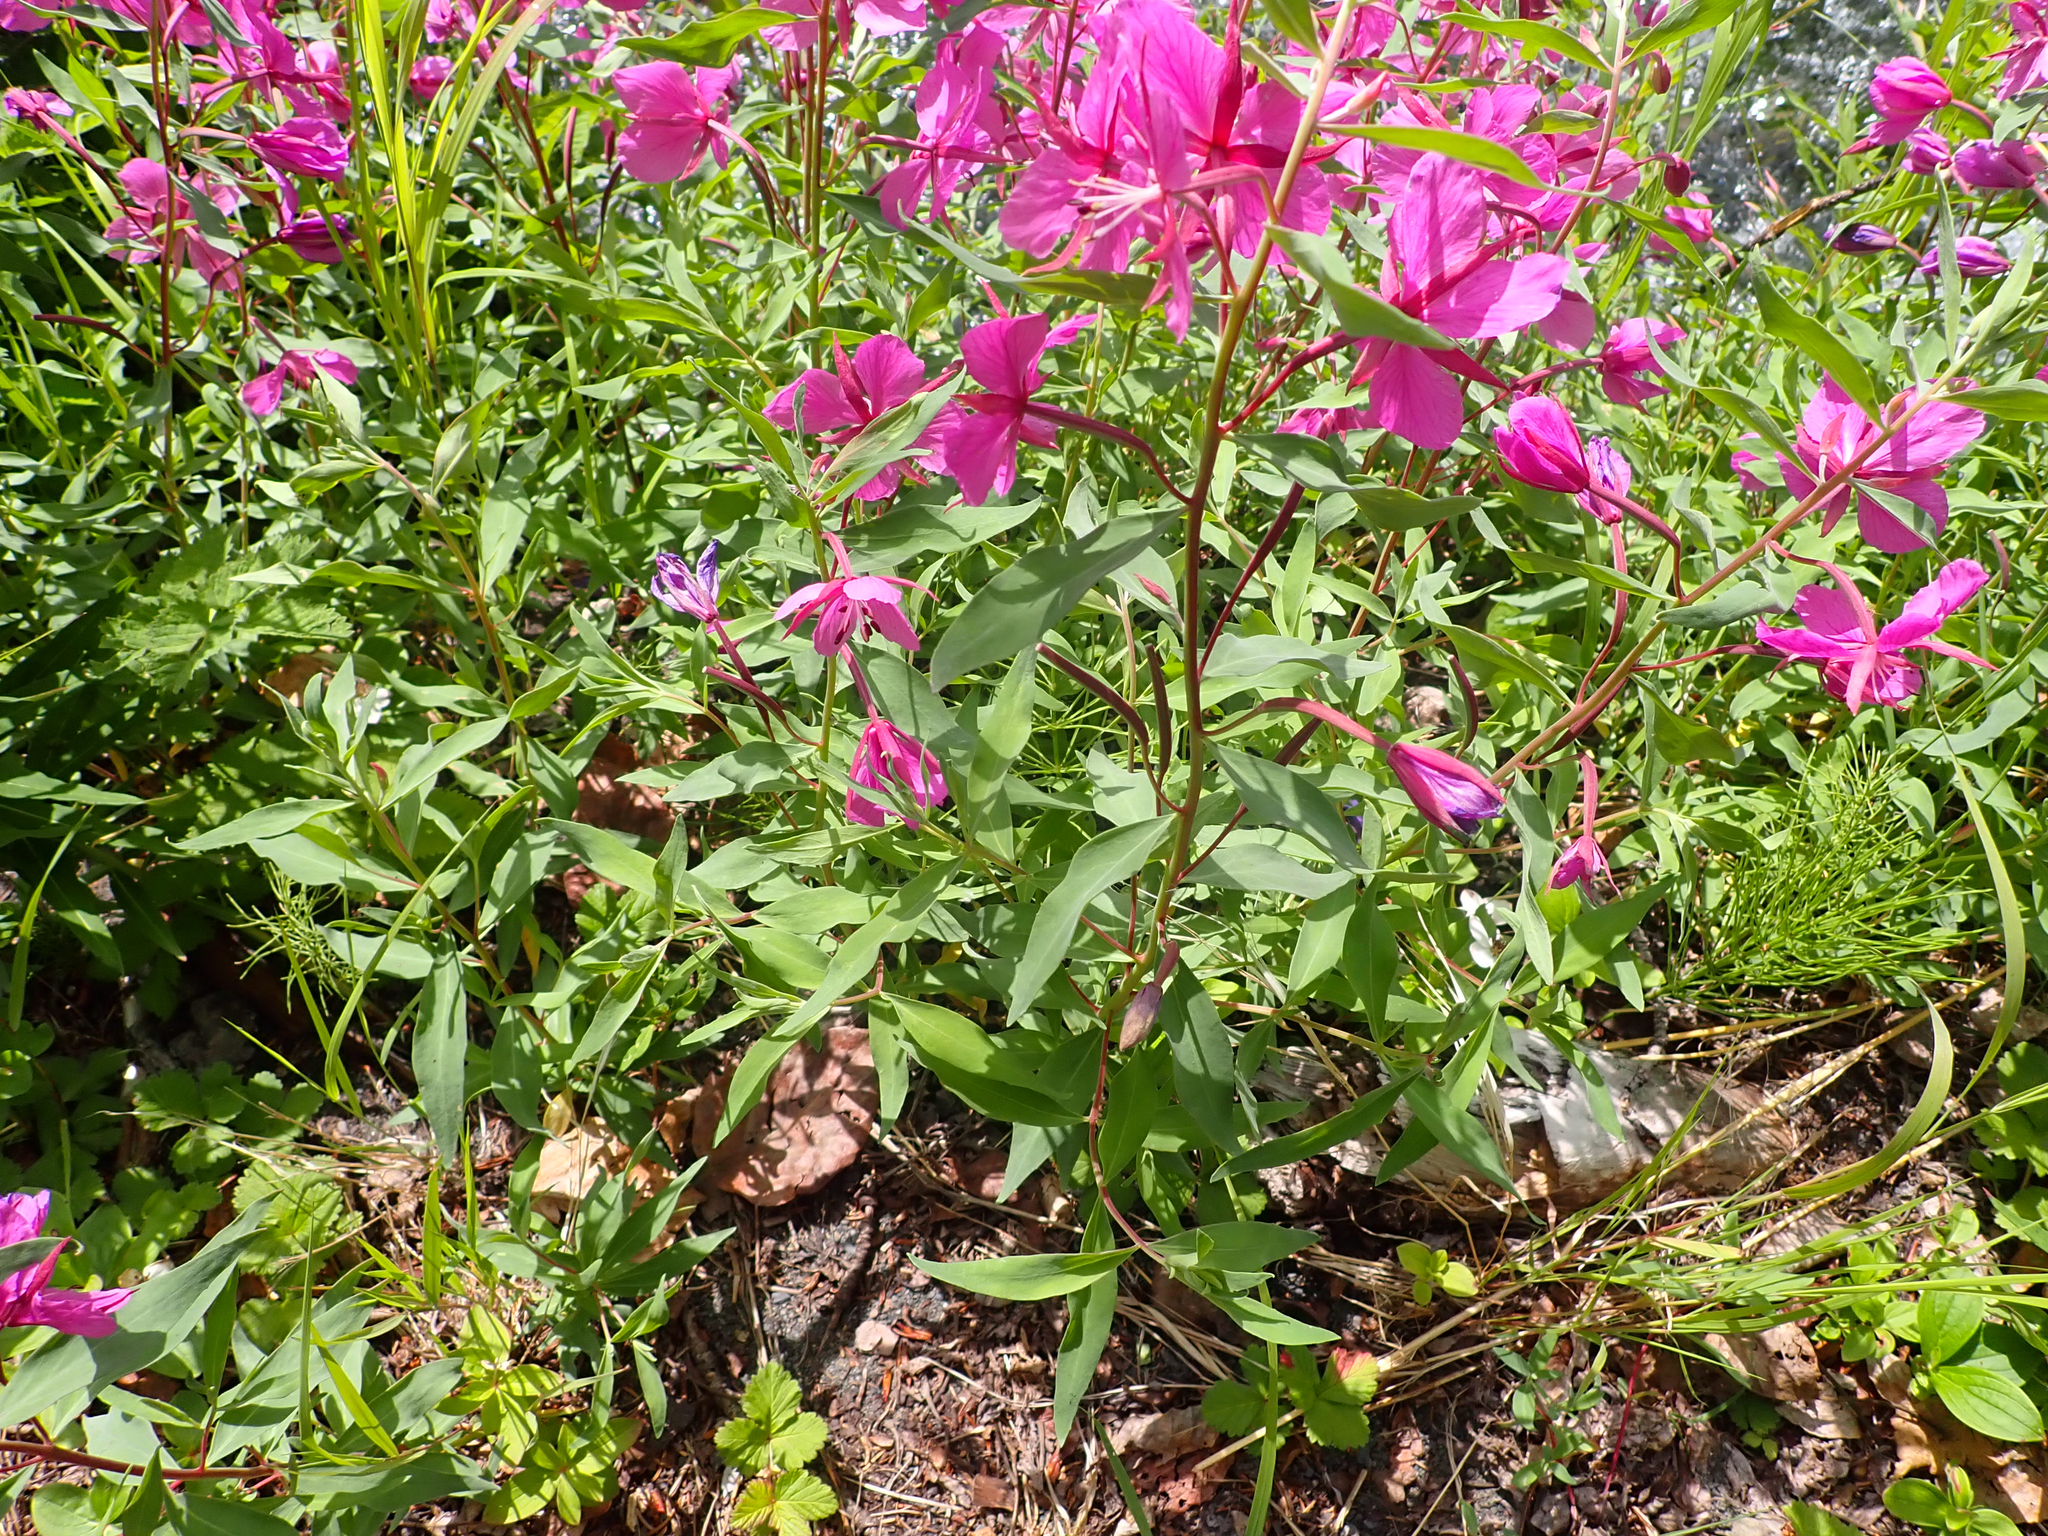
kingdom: Plantae
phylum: Tracheophyta
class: Magnoliopsida
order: Myrtales
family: Onagraceae
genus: Chamaenerion
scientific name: Chamaenerion latifolium
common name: Dwarf fireweed
